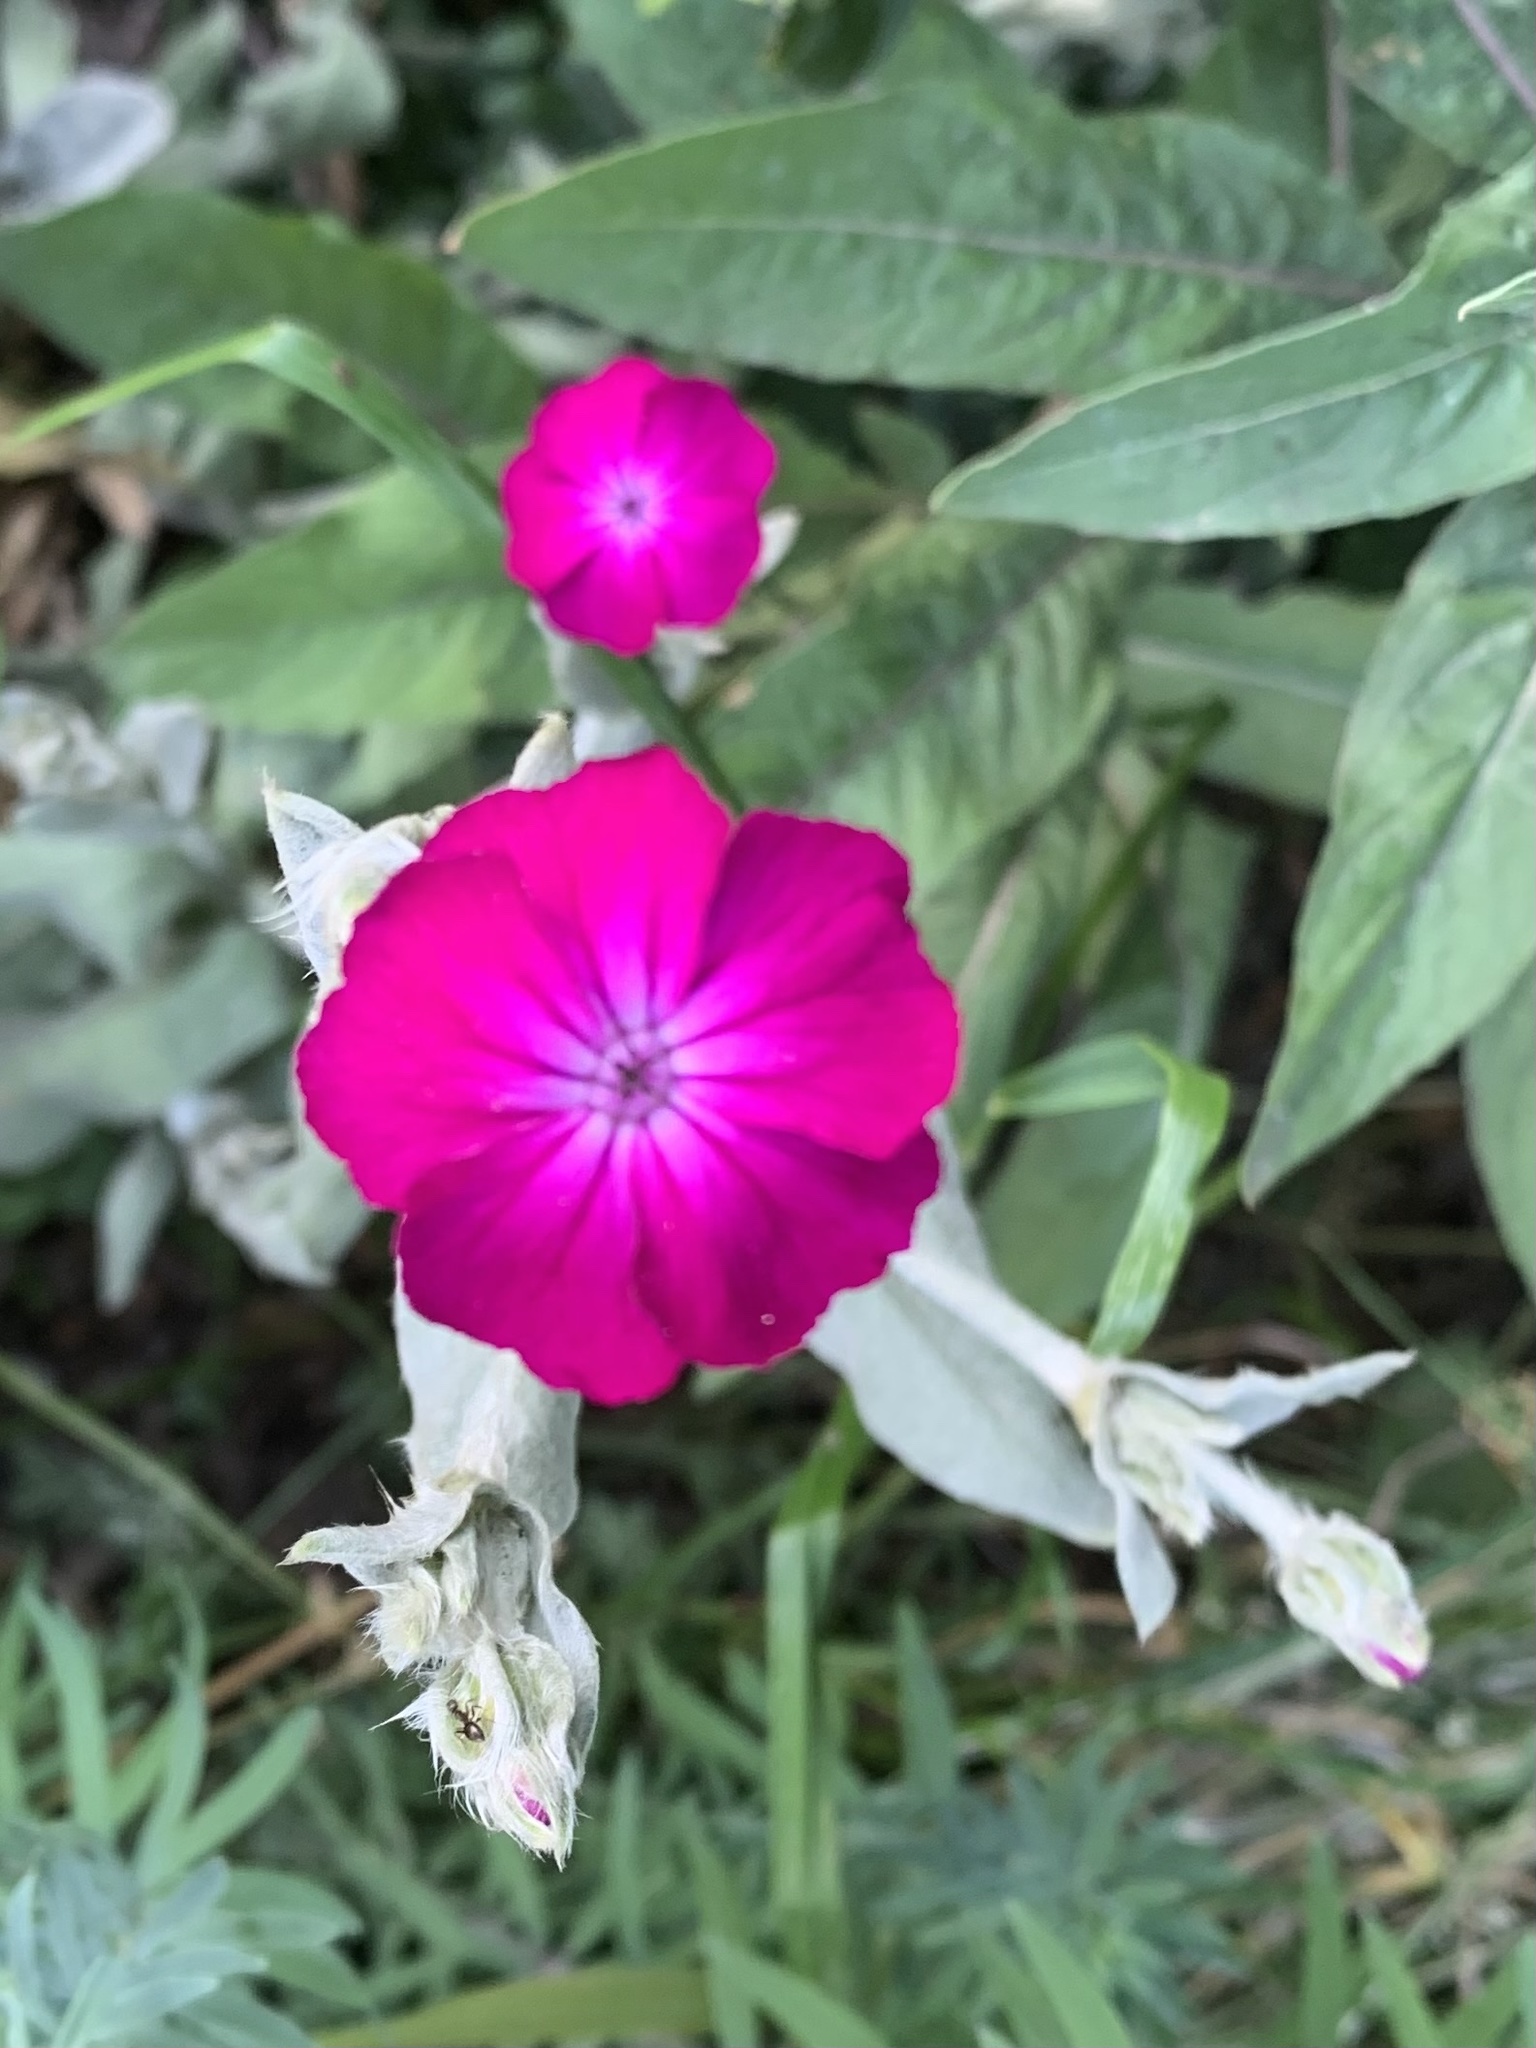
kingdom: Plantae
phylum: Tracheophyta
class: Magnoliopsida
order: Caryophyllales
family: Caryophyllaceae
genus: Silene
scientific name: Silene coronaria
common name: Rose campion
